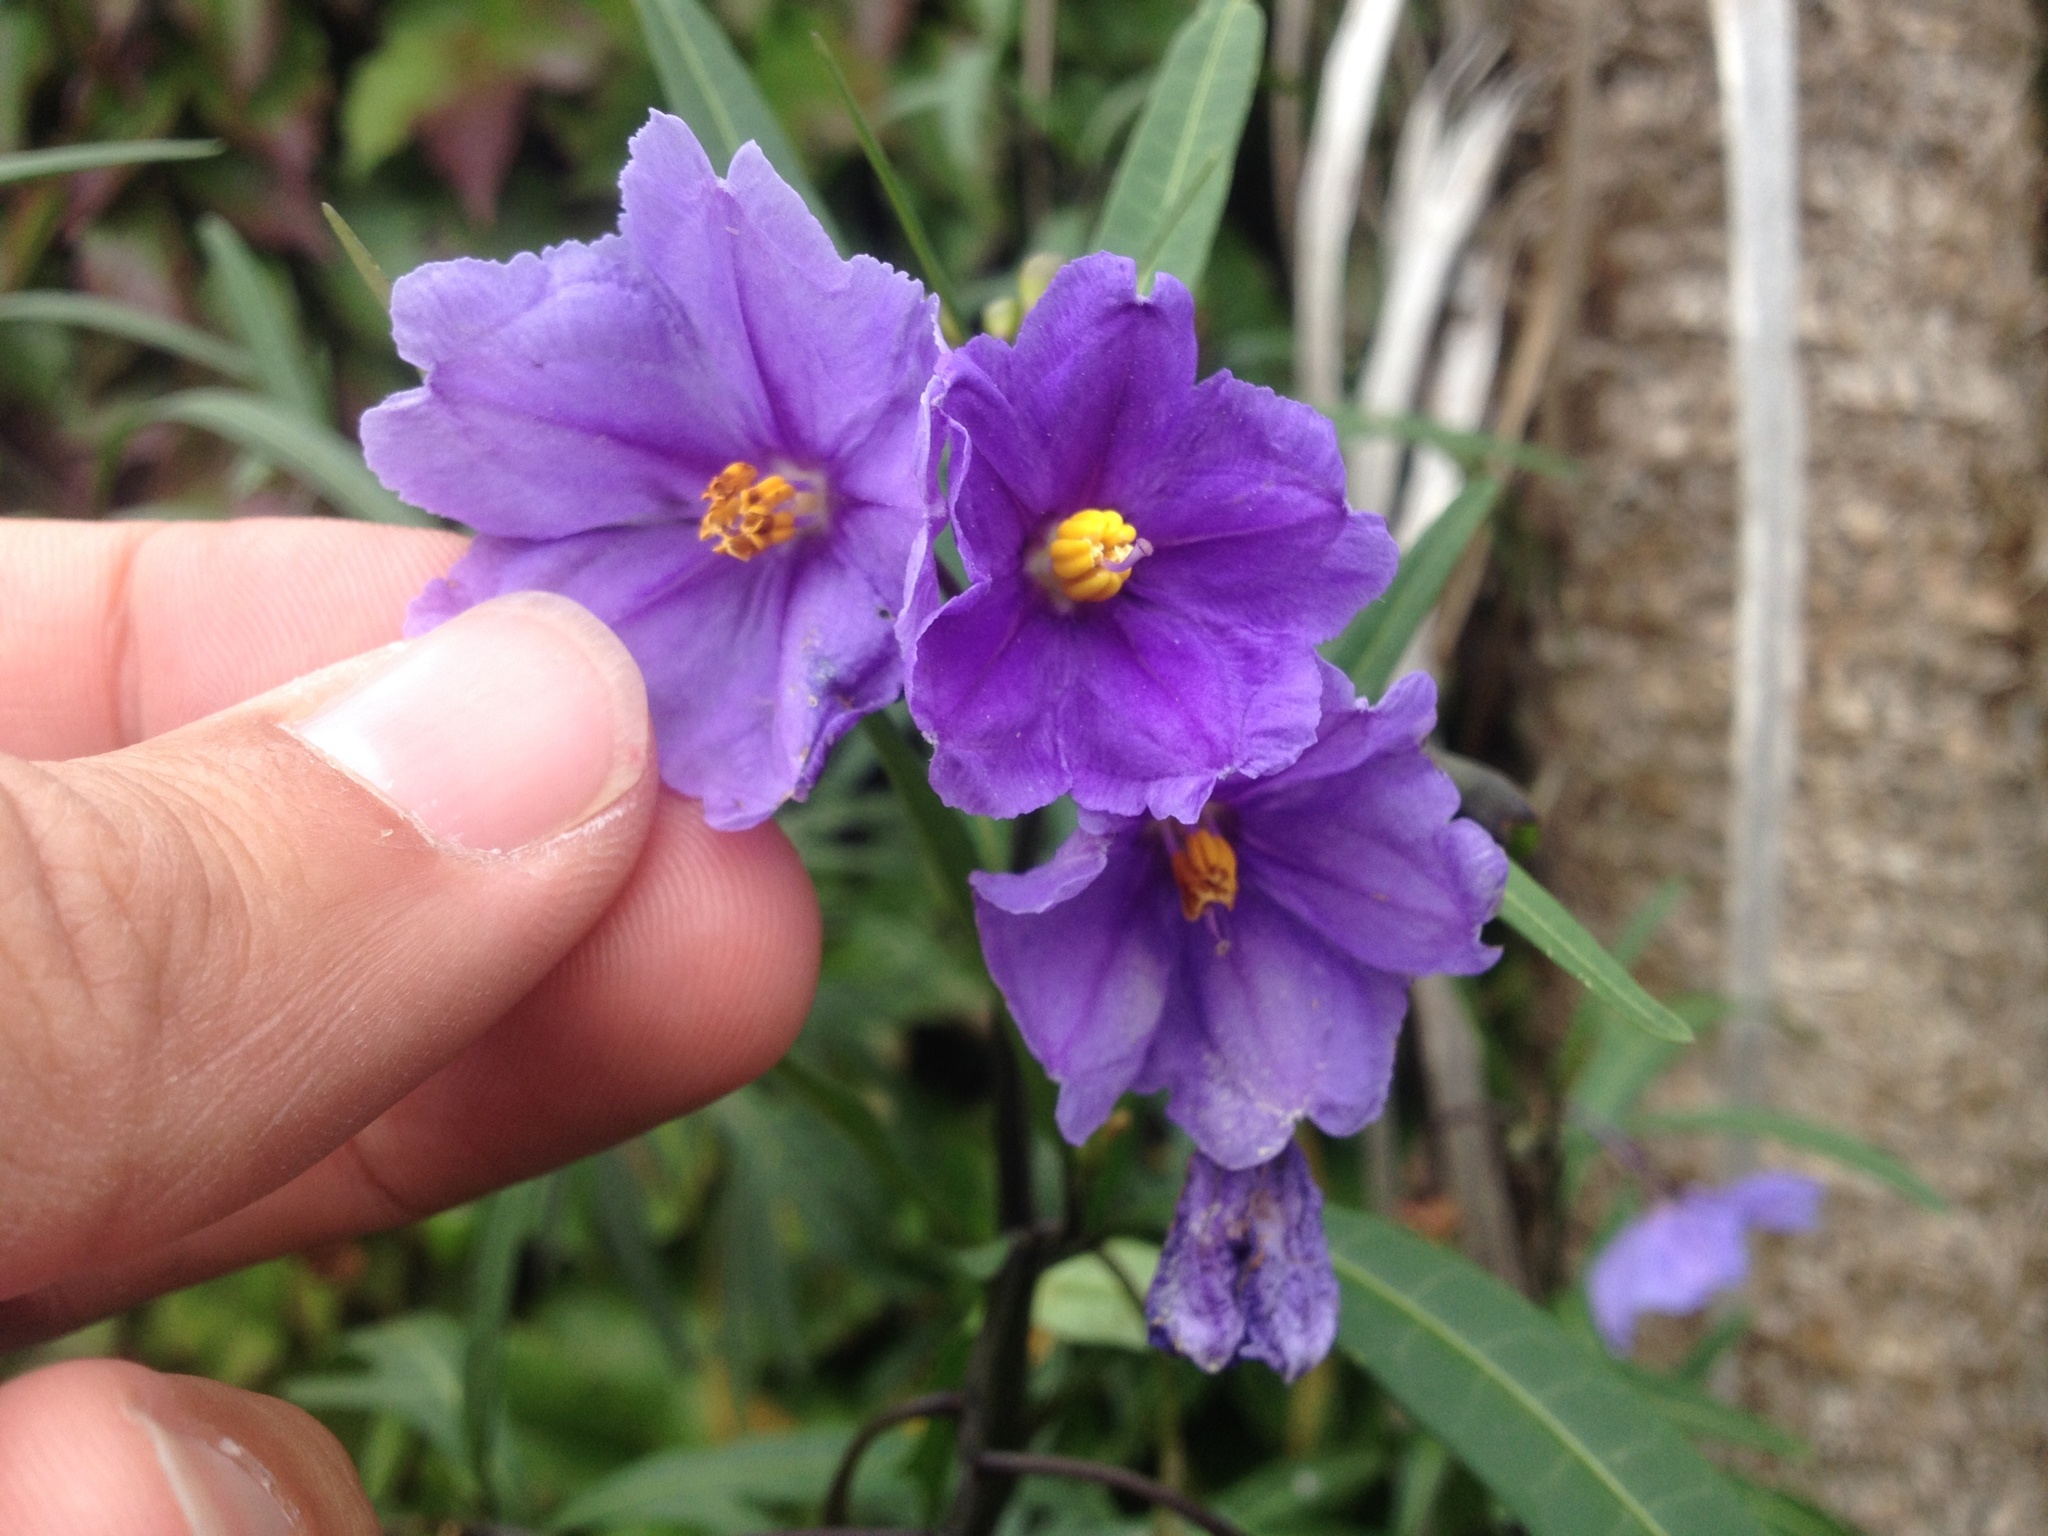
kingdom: Plantae
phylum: Tracheophyta
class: Magnoliopsida
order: Solanales
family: Solanaceae
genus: Solanum
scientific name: Solanum laciniatum
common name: Kangaroo-apple
